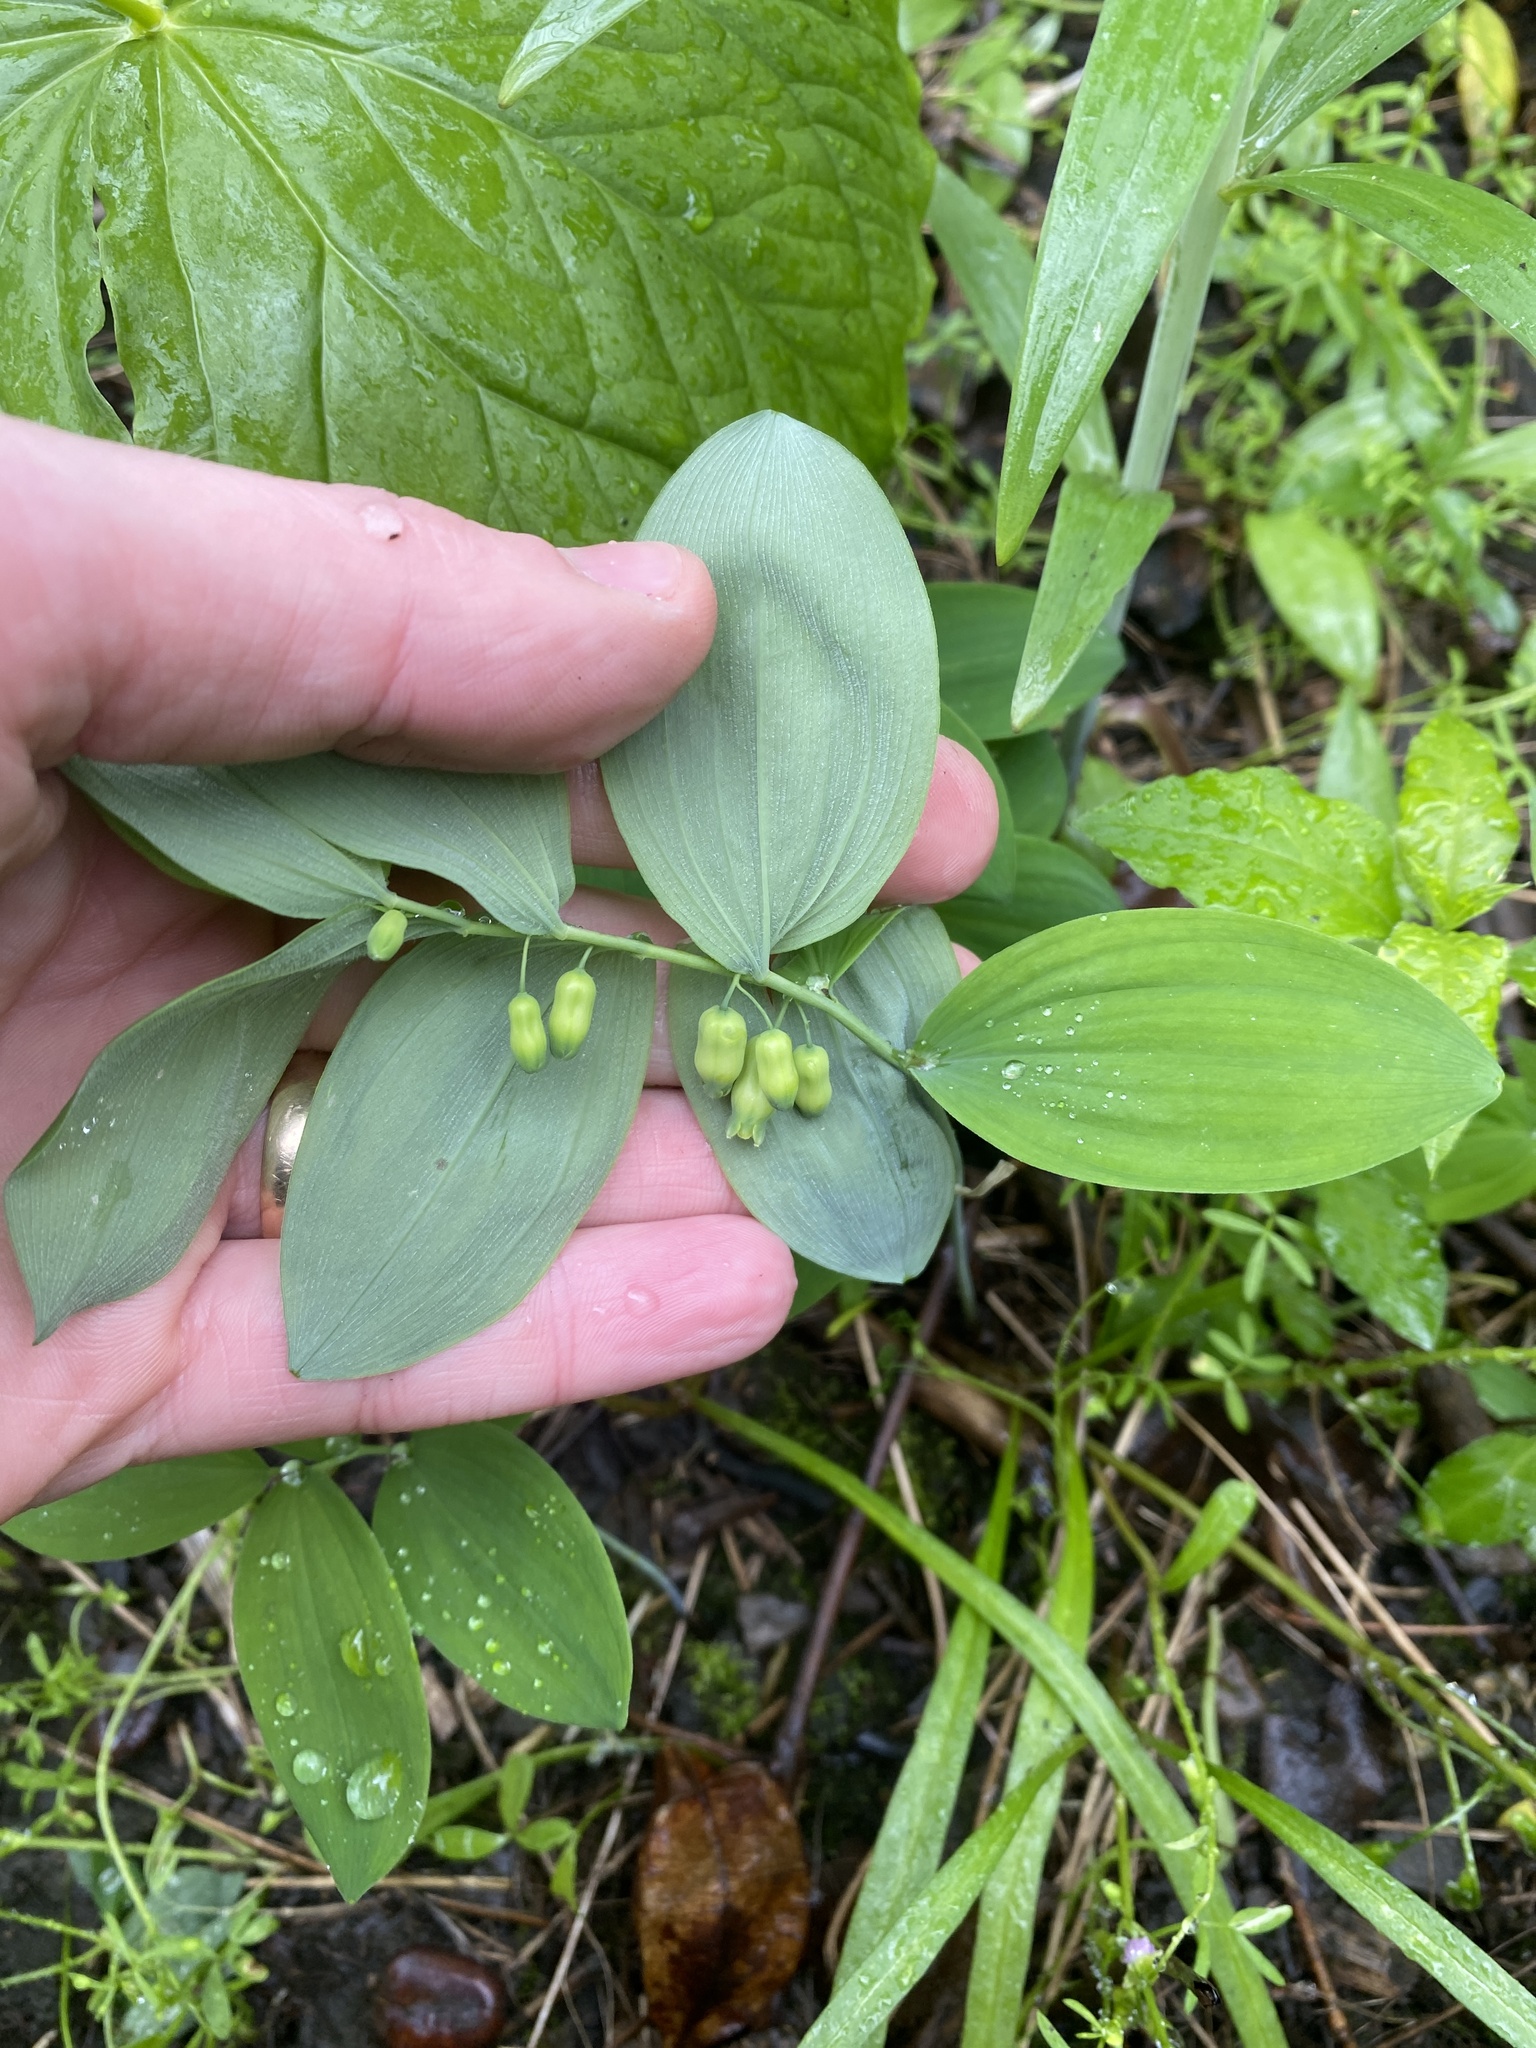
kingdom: Plantae
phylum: Tracheophyta
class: Liliopsida
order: Asparagales
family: Asparagaceae
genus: Polygonatum
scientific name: Polygonatum pubescens
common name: Downy solomon's seal
